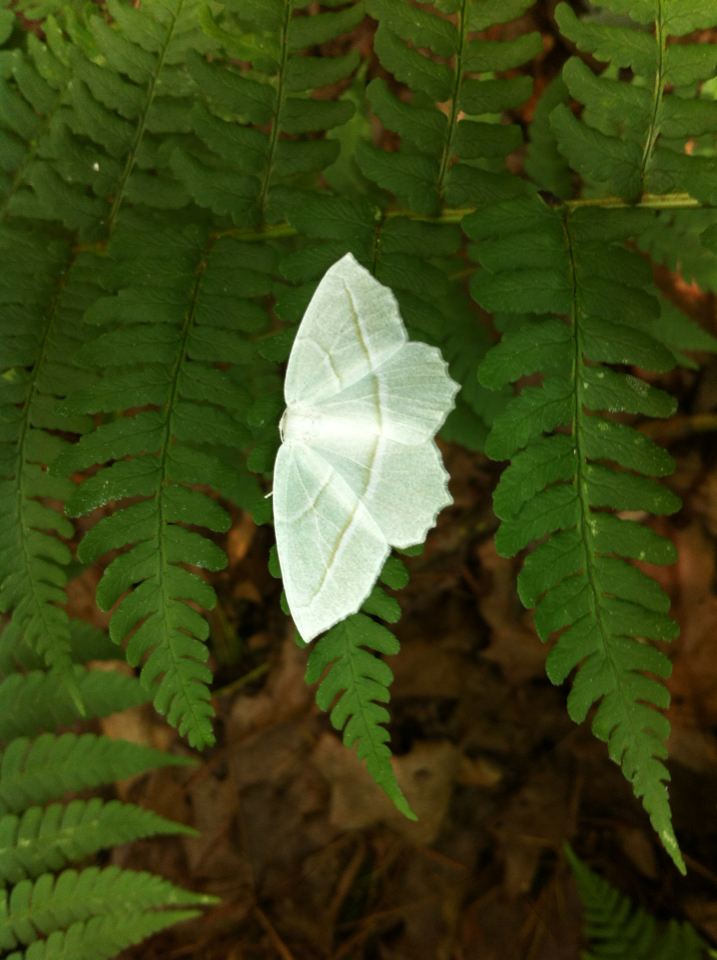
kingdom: Animalia
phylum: Arthropoda
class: Insecta
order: Lepidoptera
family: Geometridae
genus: Campaea
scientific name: Campaea perlata
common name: Fringed looper
